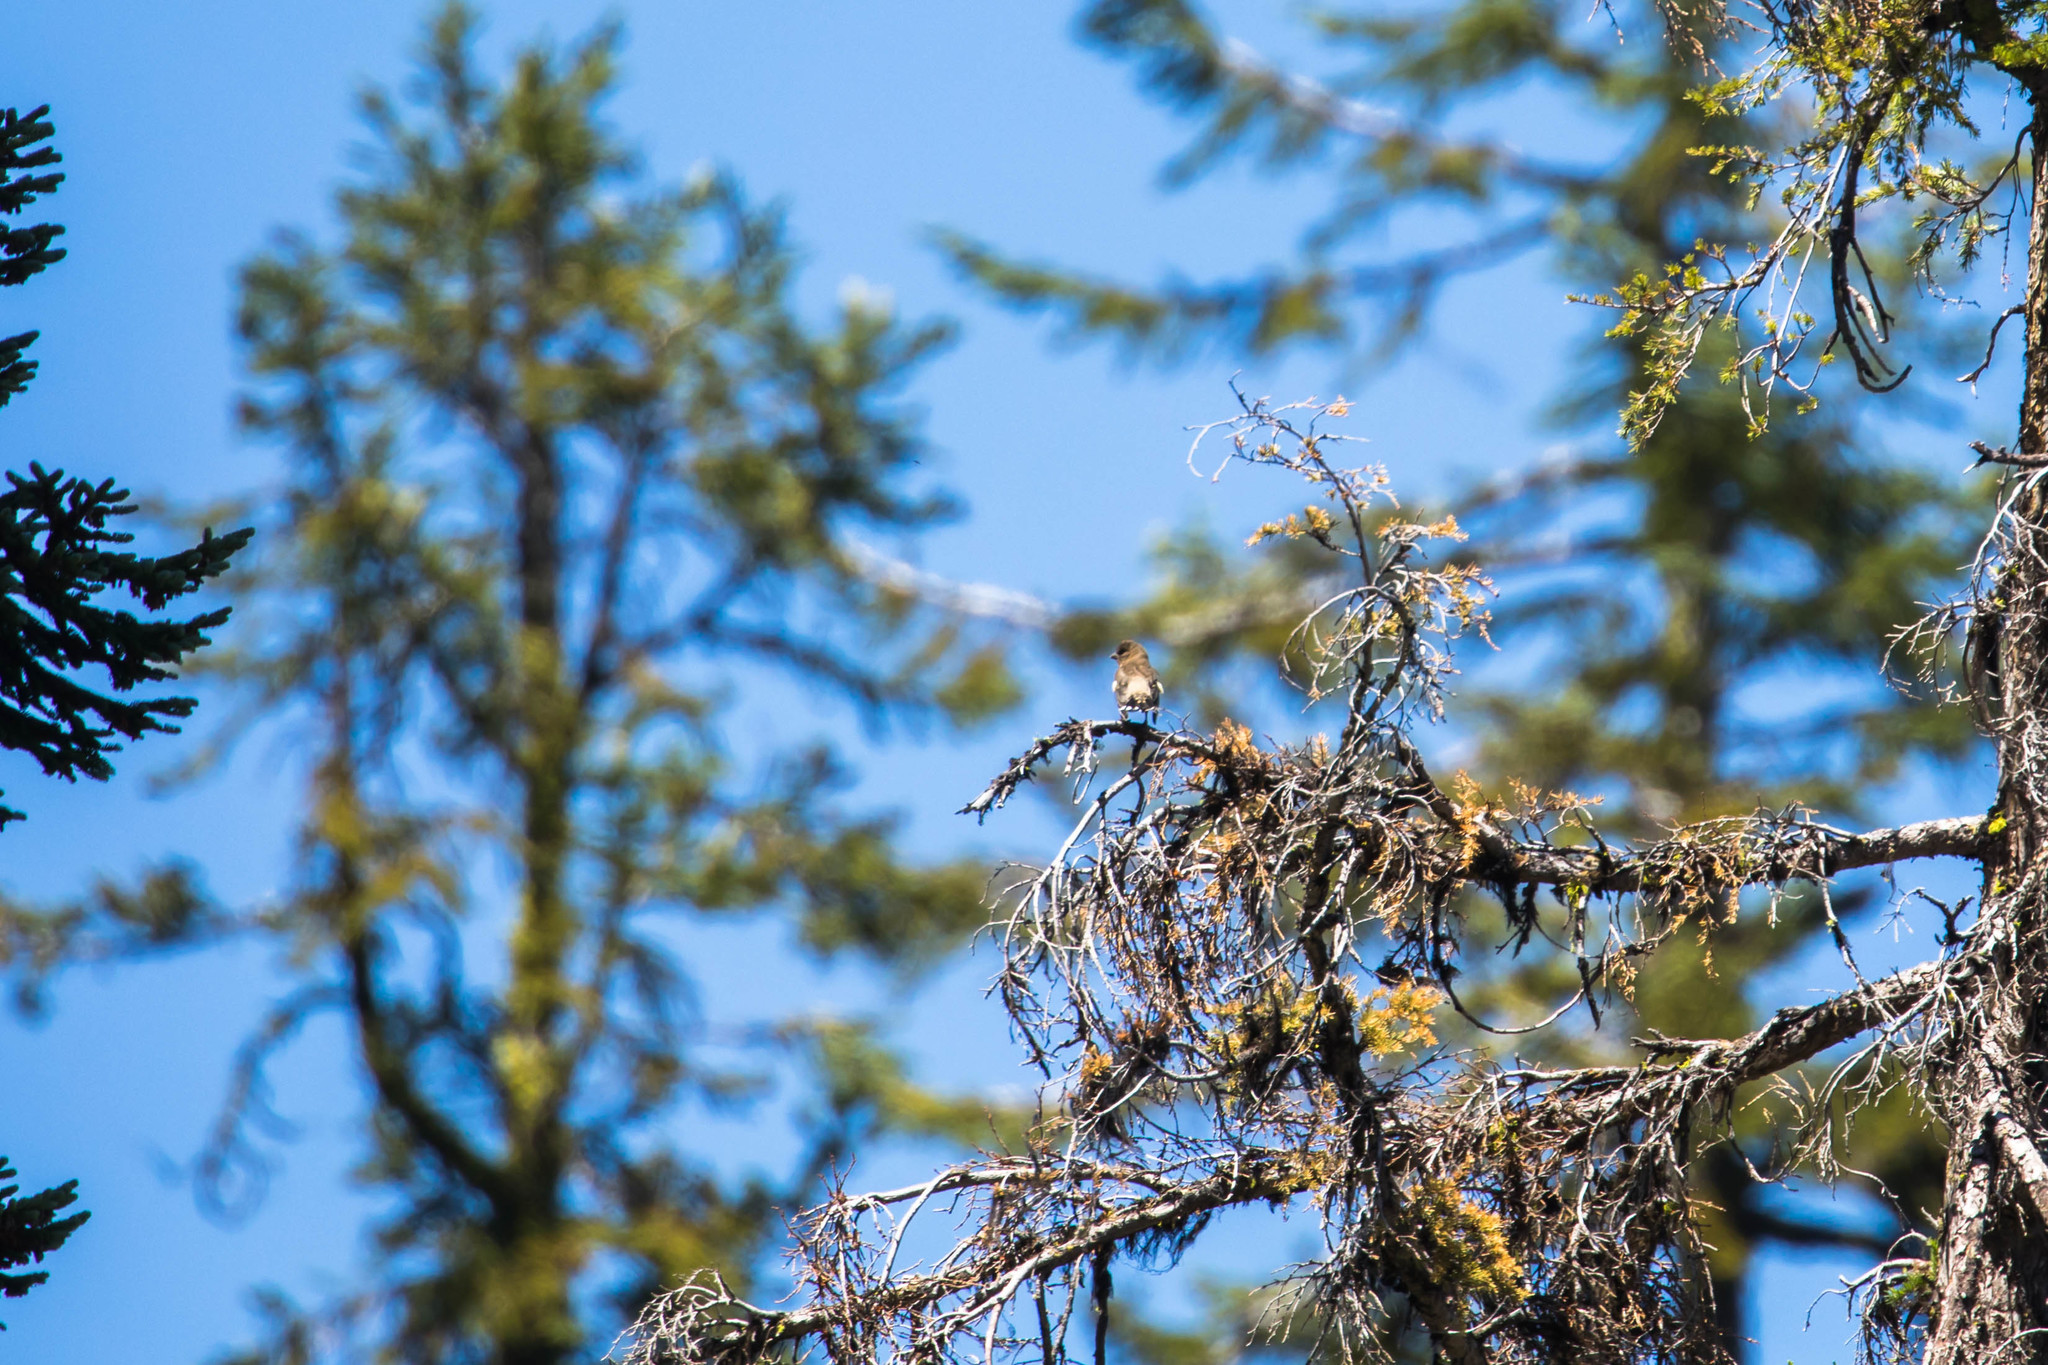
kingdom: Animalia
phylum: Chordata
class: Aves
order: Passeriformes
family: Fringillidae
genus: Hesperiphona
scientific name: Hesperiphona vespertina
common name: Evening grosbeak
